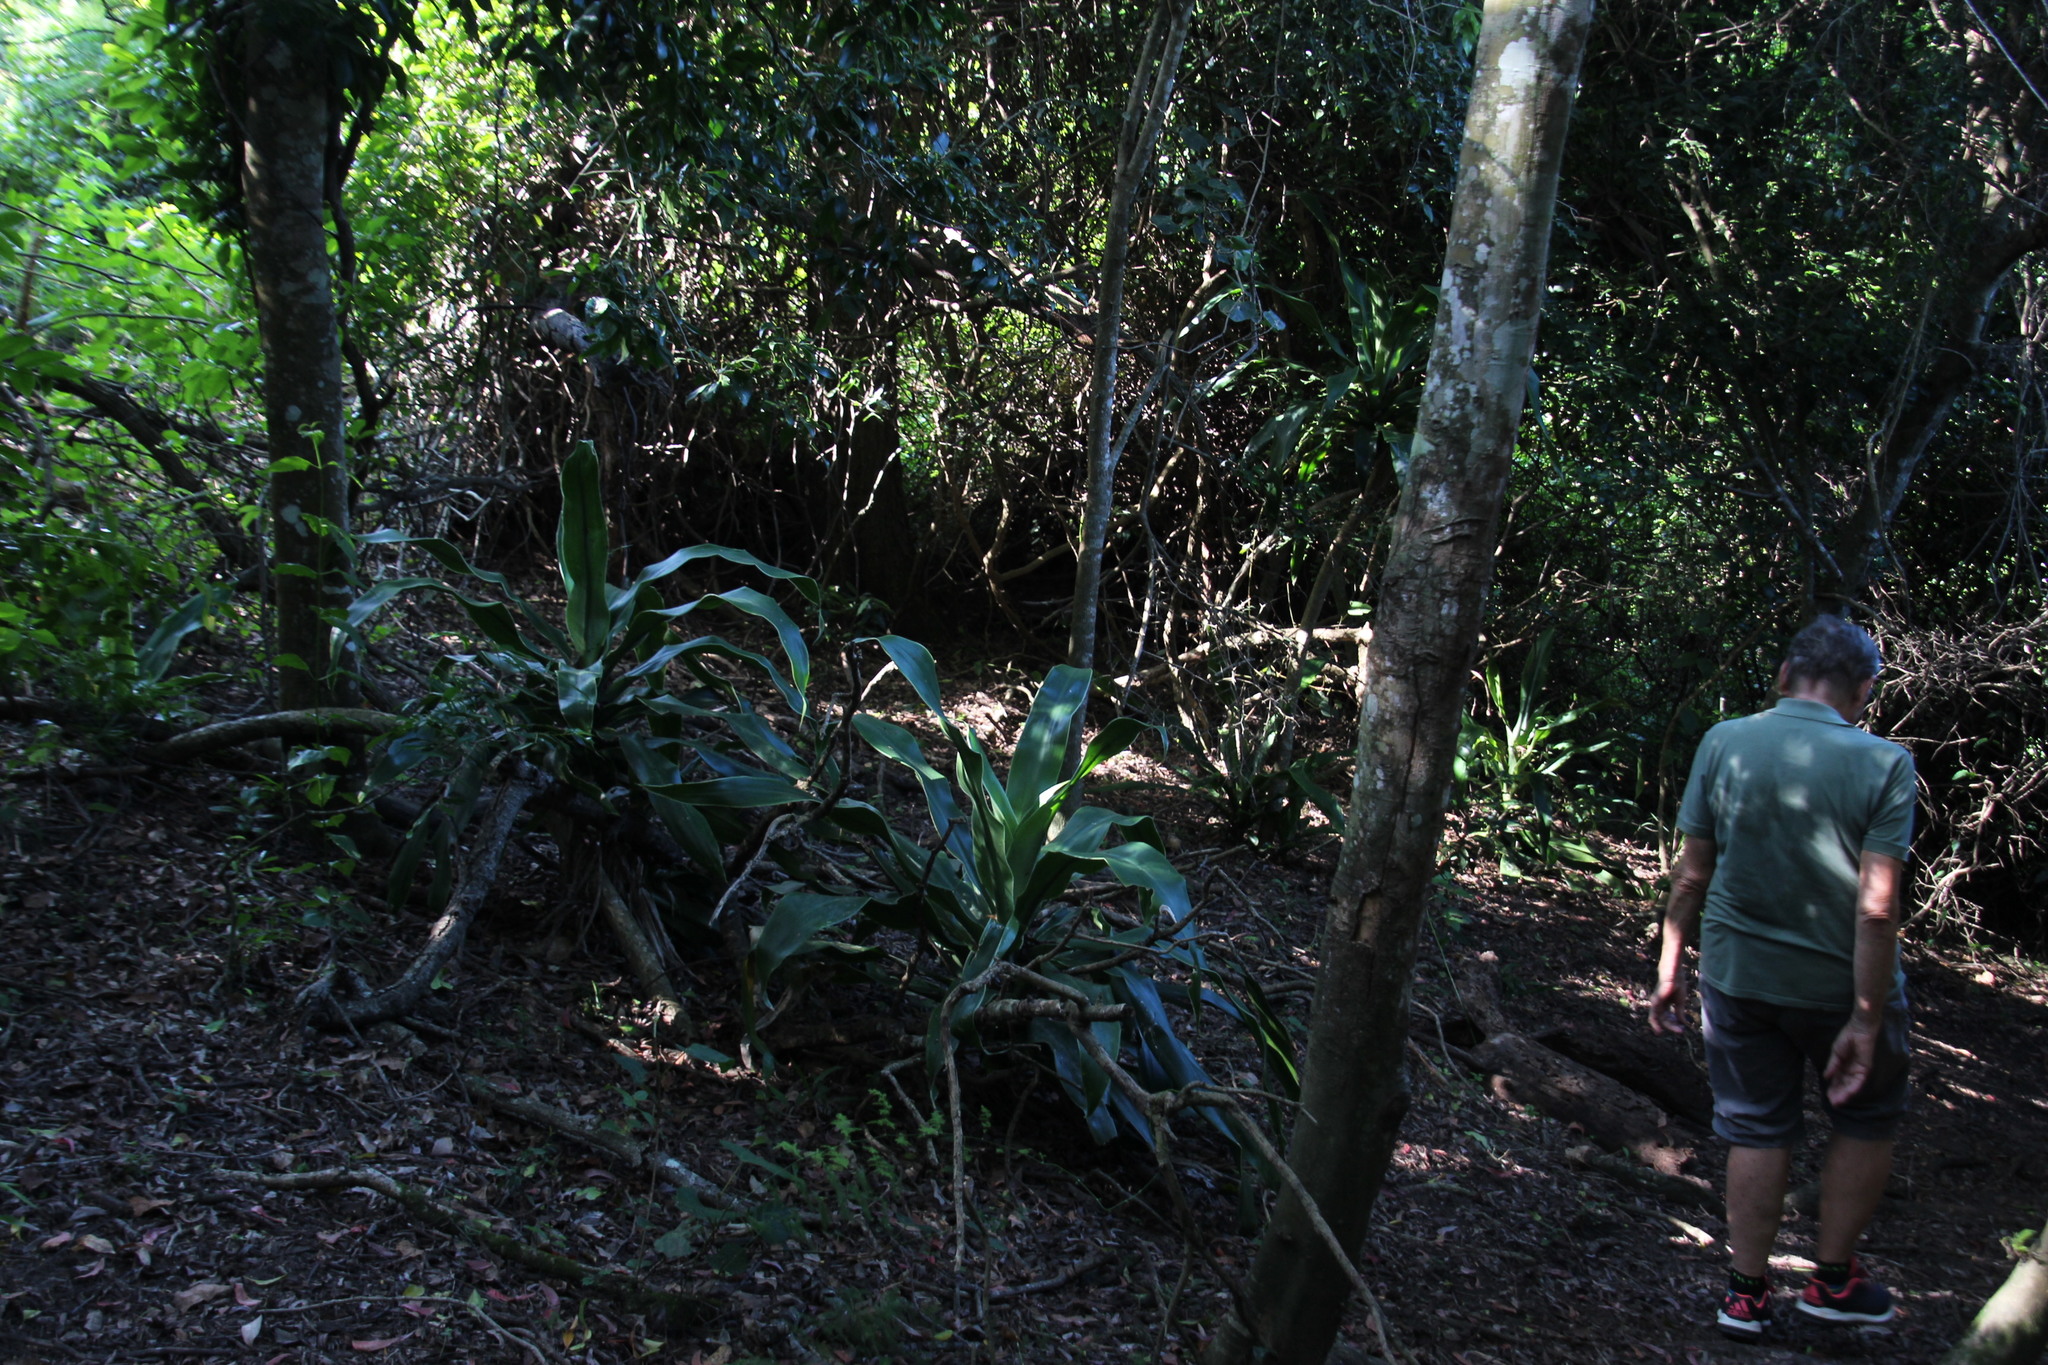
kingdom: Plantae
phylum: Tracheophyta
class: Liliopsida
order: Asparagales
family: Asparagaceae
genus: Dracaena
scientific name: Dracaena aletriformis
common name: Large-leaved dragon tree
